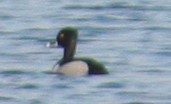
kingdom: Animalia
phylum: Chordata
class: Aves
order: Anseriformes
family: Anatidae
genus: Aythya
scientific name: Aythya collaris
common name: Ring-necked duck
